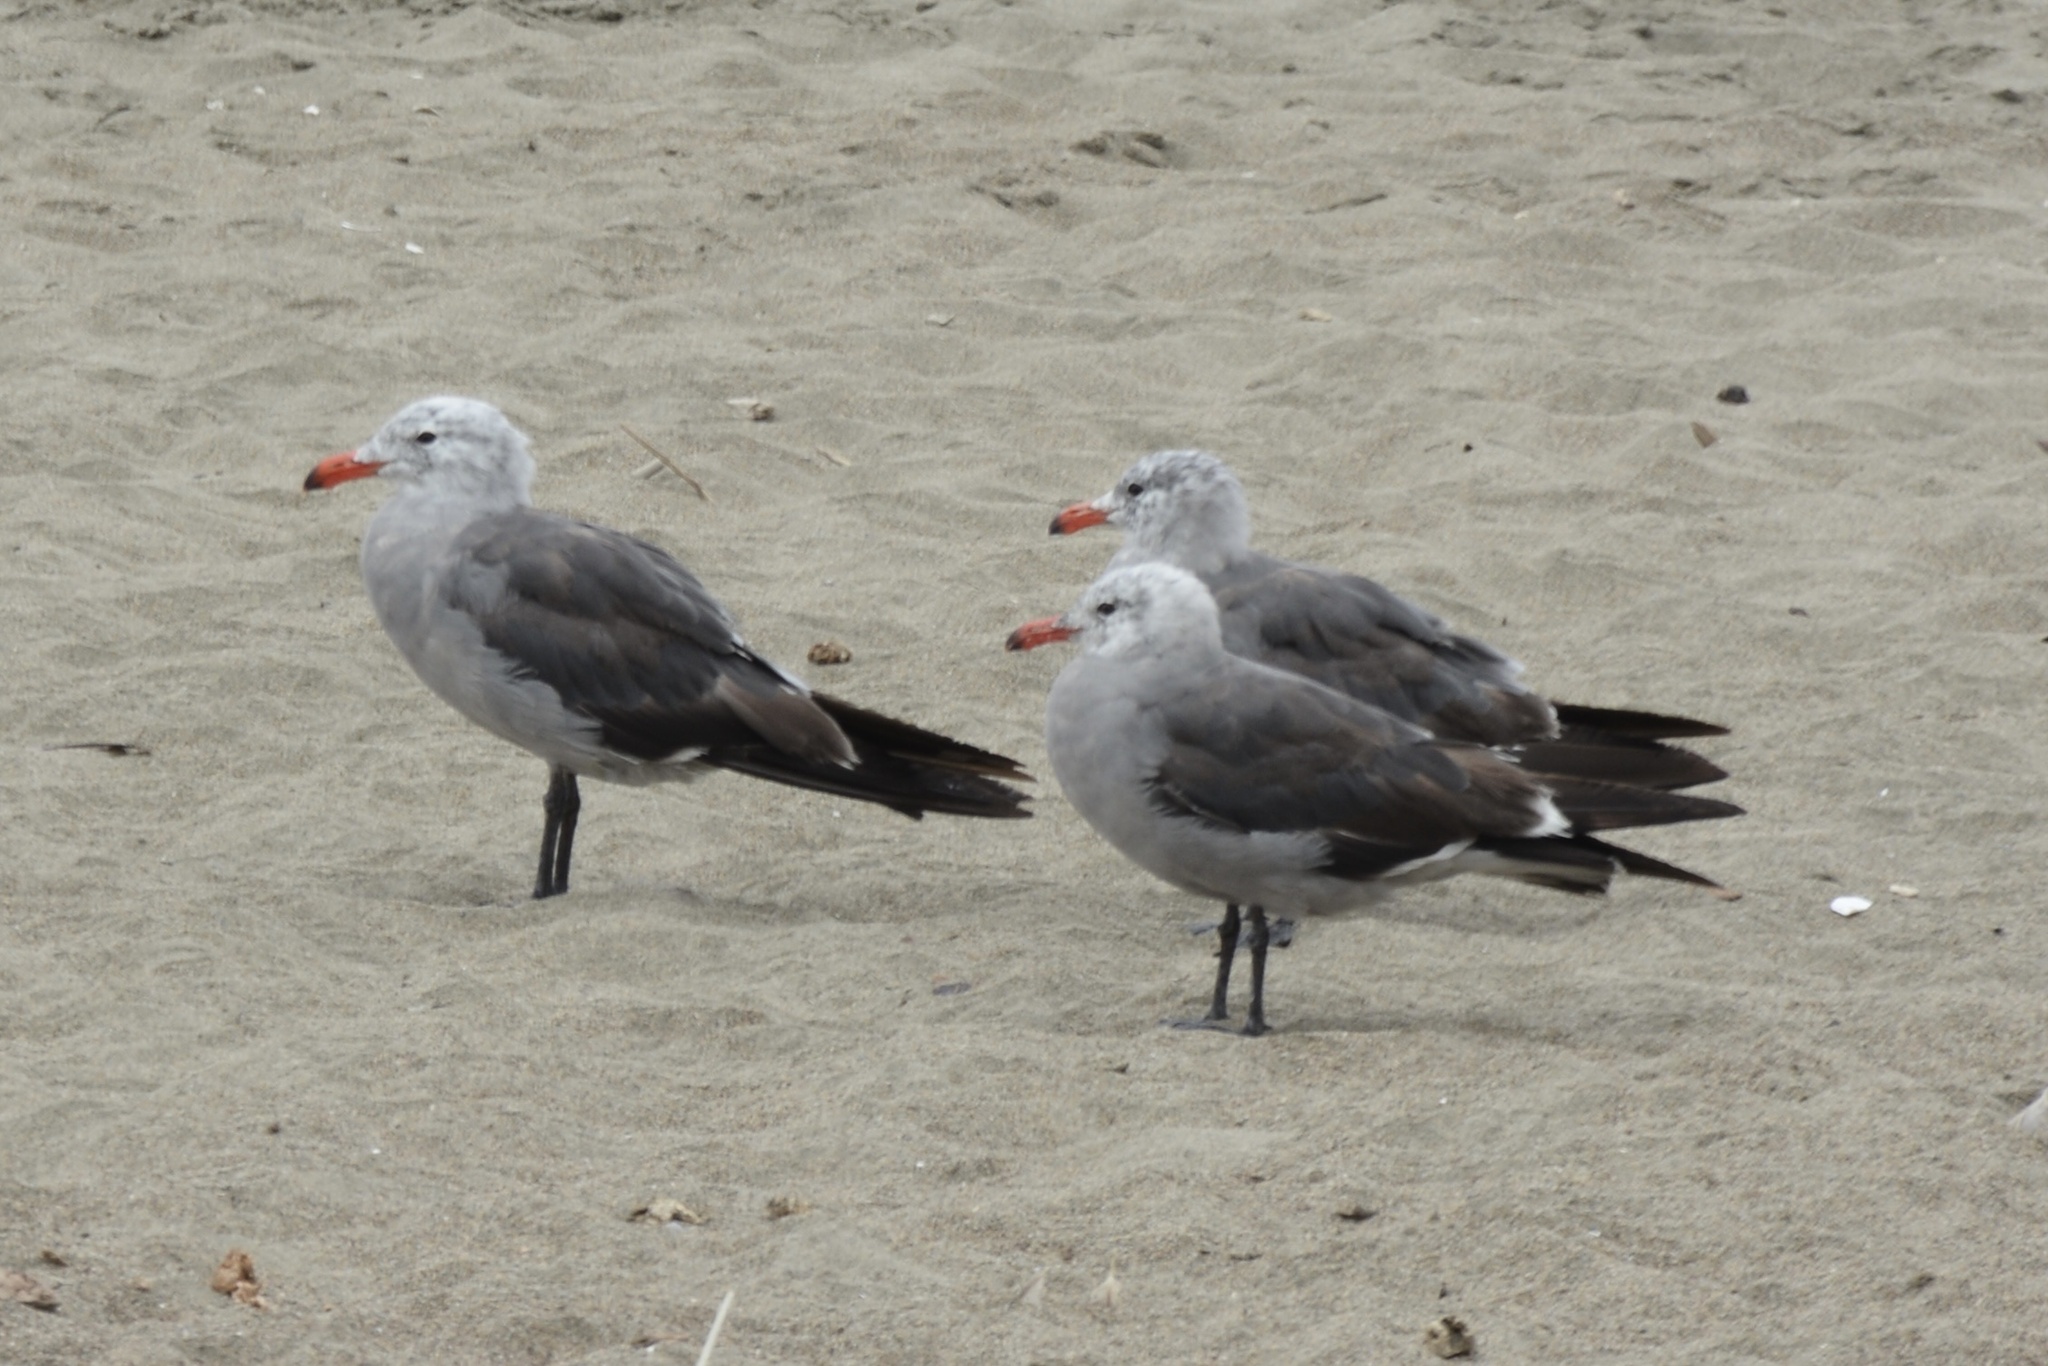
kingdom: Animalia
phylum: Chordata
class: Aves
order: Charadriiformes
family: Laridae
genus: Larus
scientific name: Larus heermanni
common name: Heermann's gull
